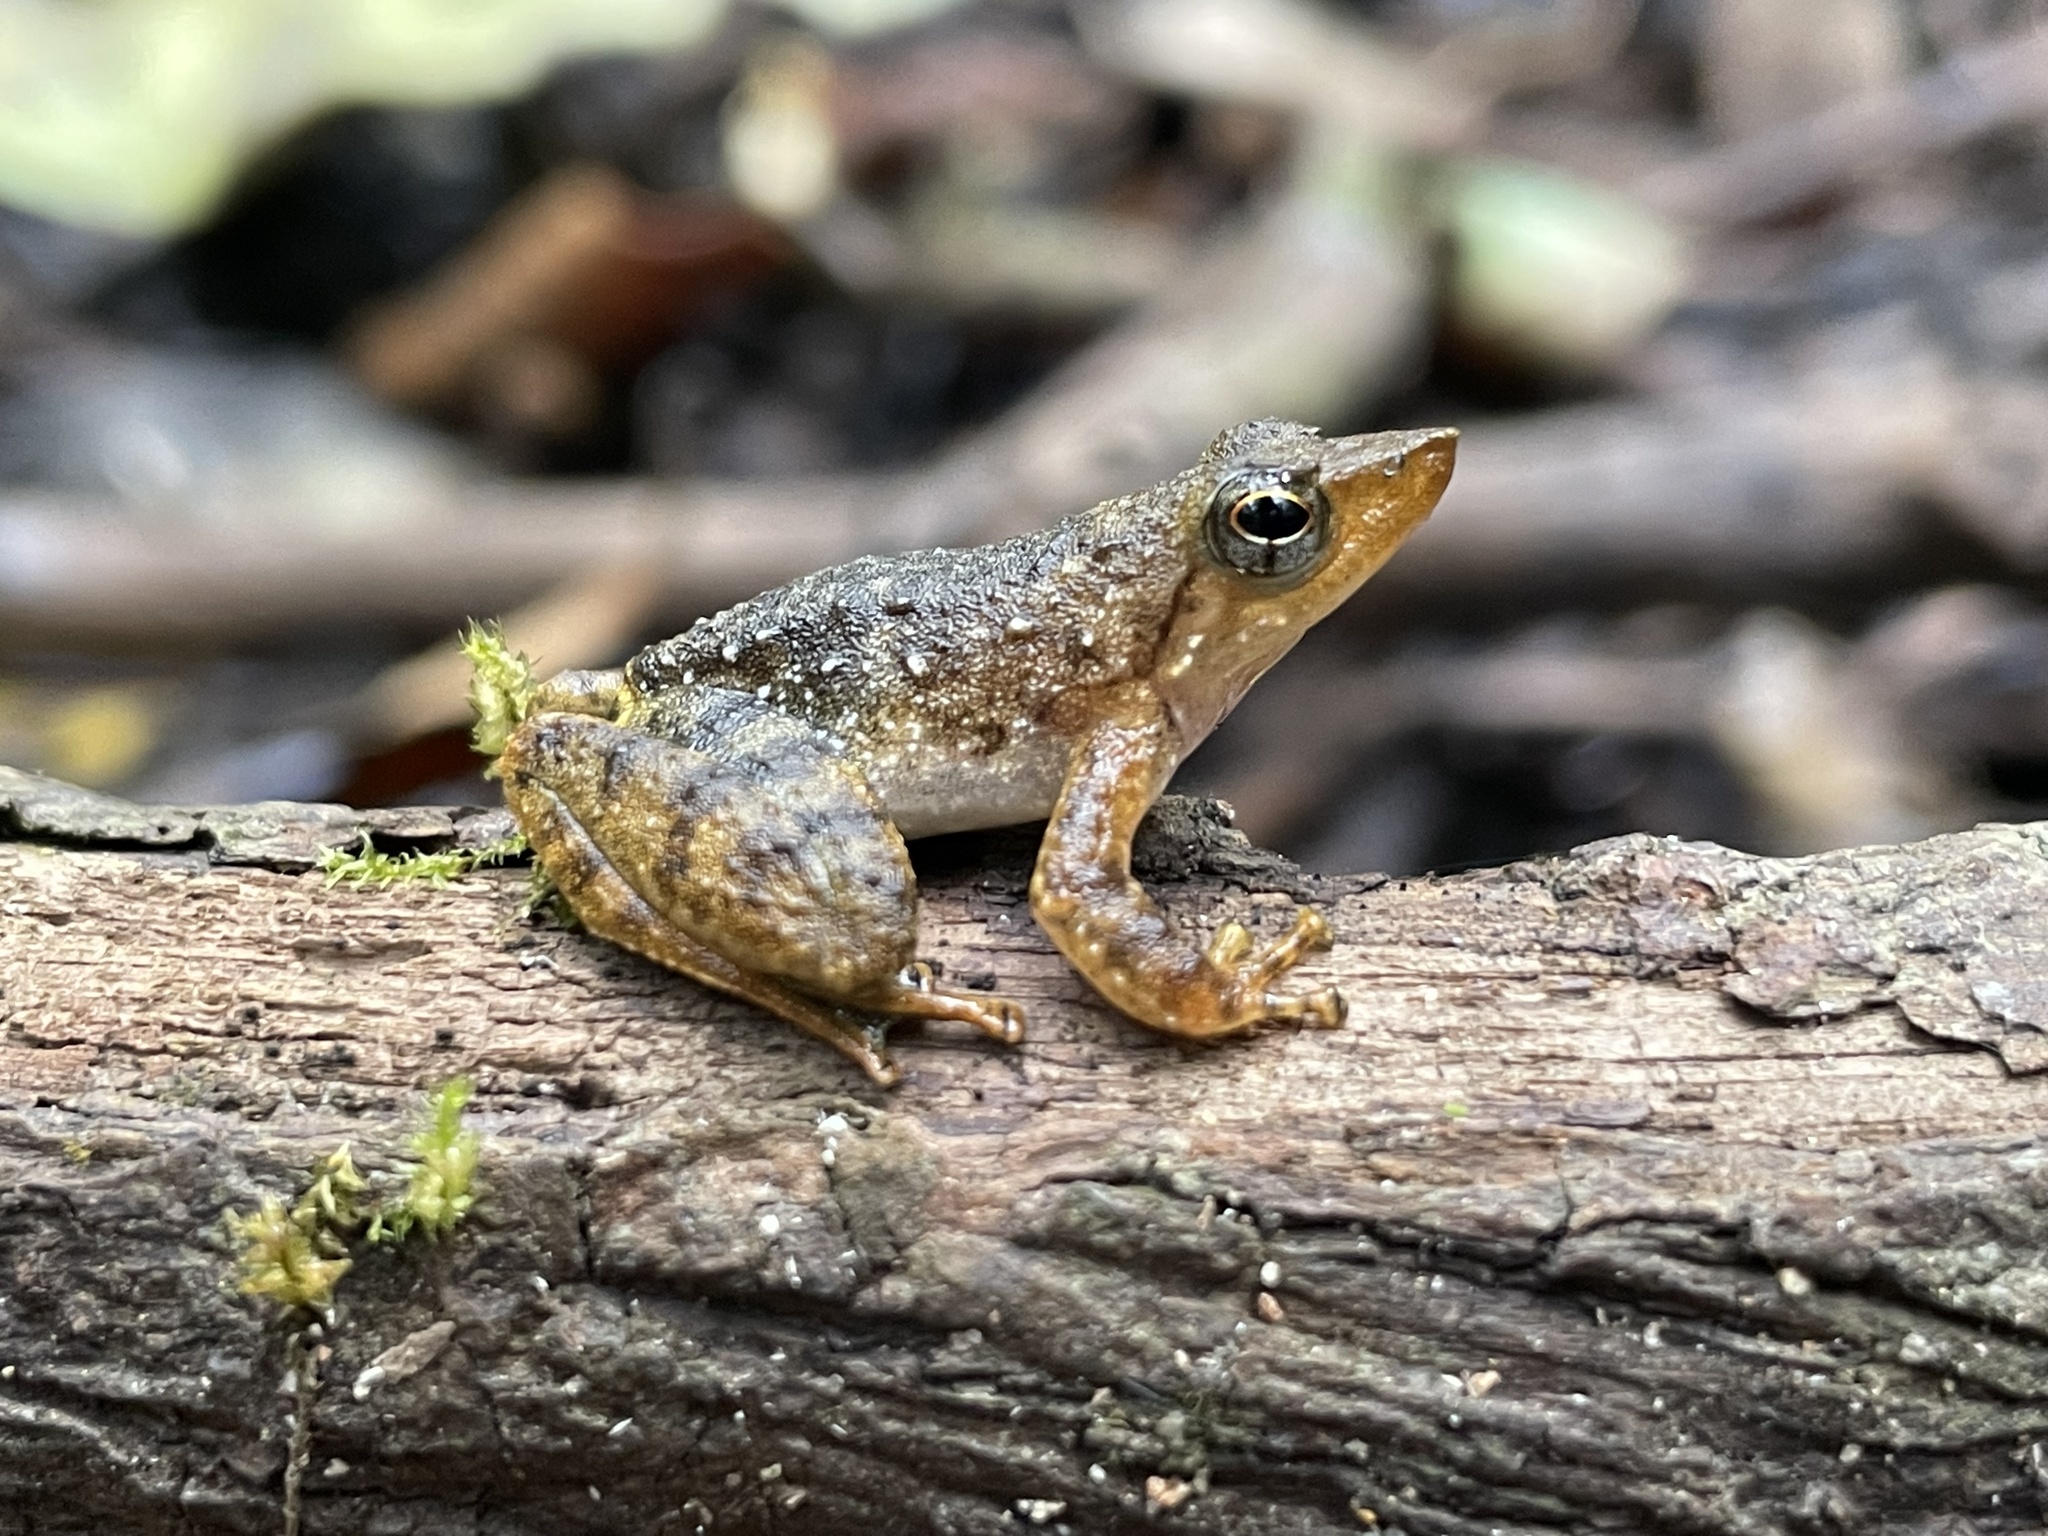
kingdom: Animalia
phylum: Chordata
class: Amphibia
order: Anura
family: Micrixalidae
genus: Micrixalus
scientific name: Micrixalus kottigeharensis
